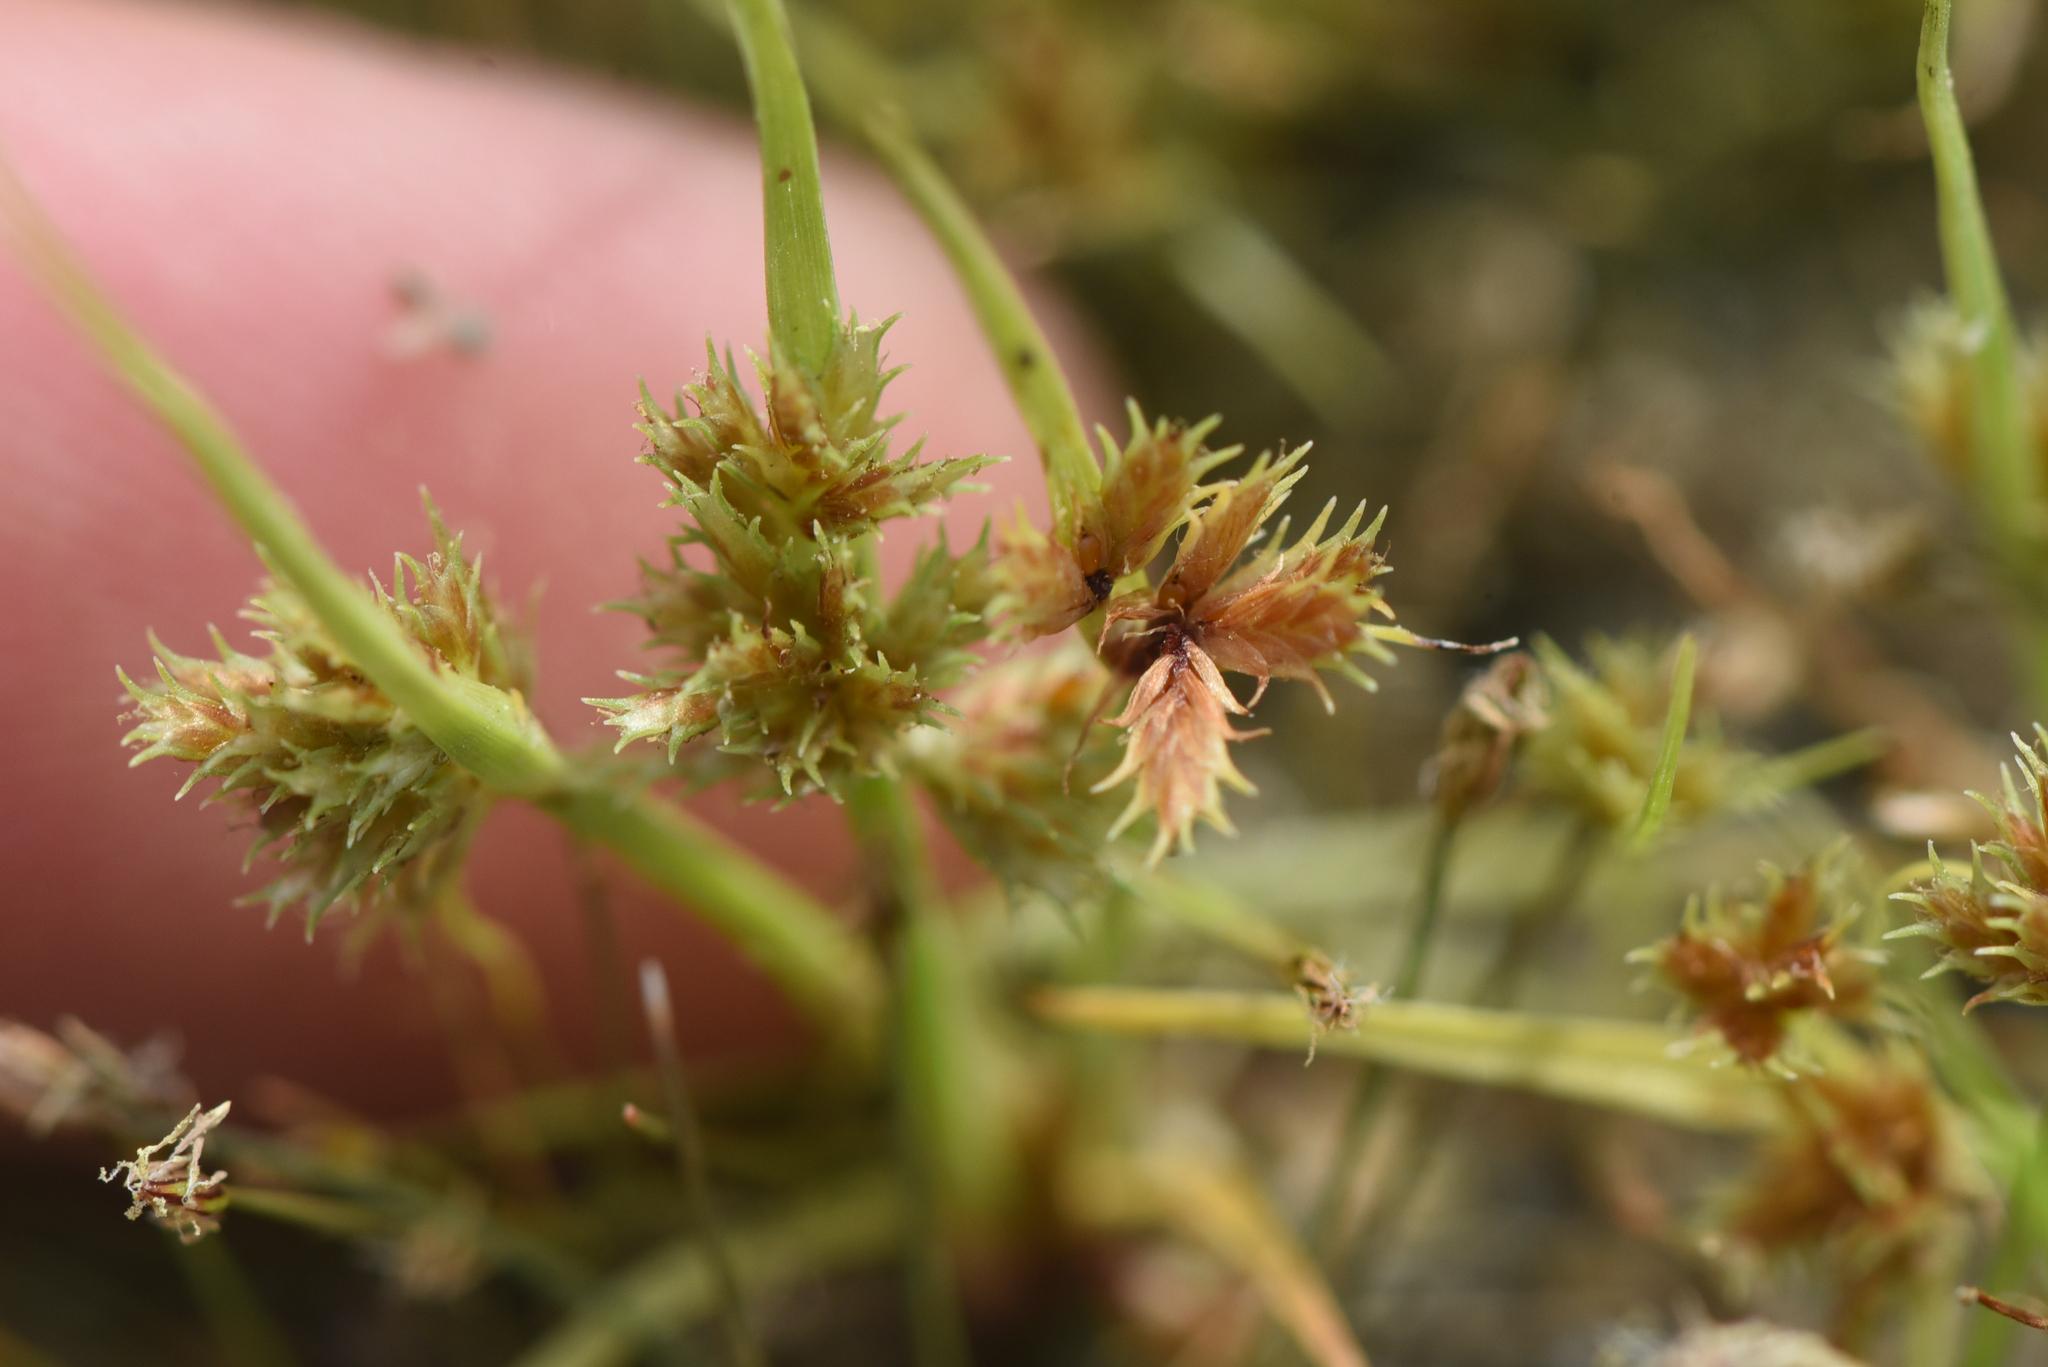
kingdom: Plantae
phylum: Tracheophyta
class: Liliopsida
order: Poales
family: Cyperaceae
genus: Cyperus
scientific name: Cyperus squarrosus
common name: Awned cyperus
